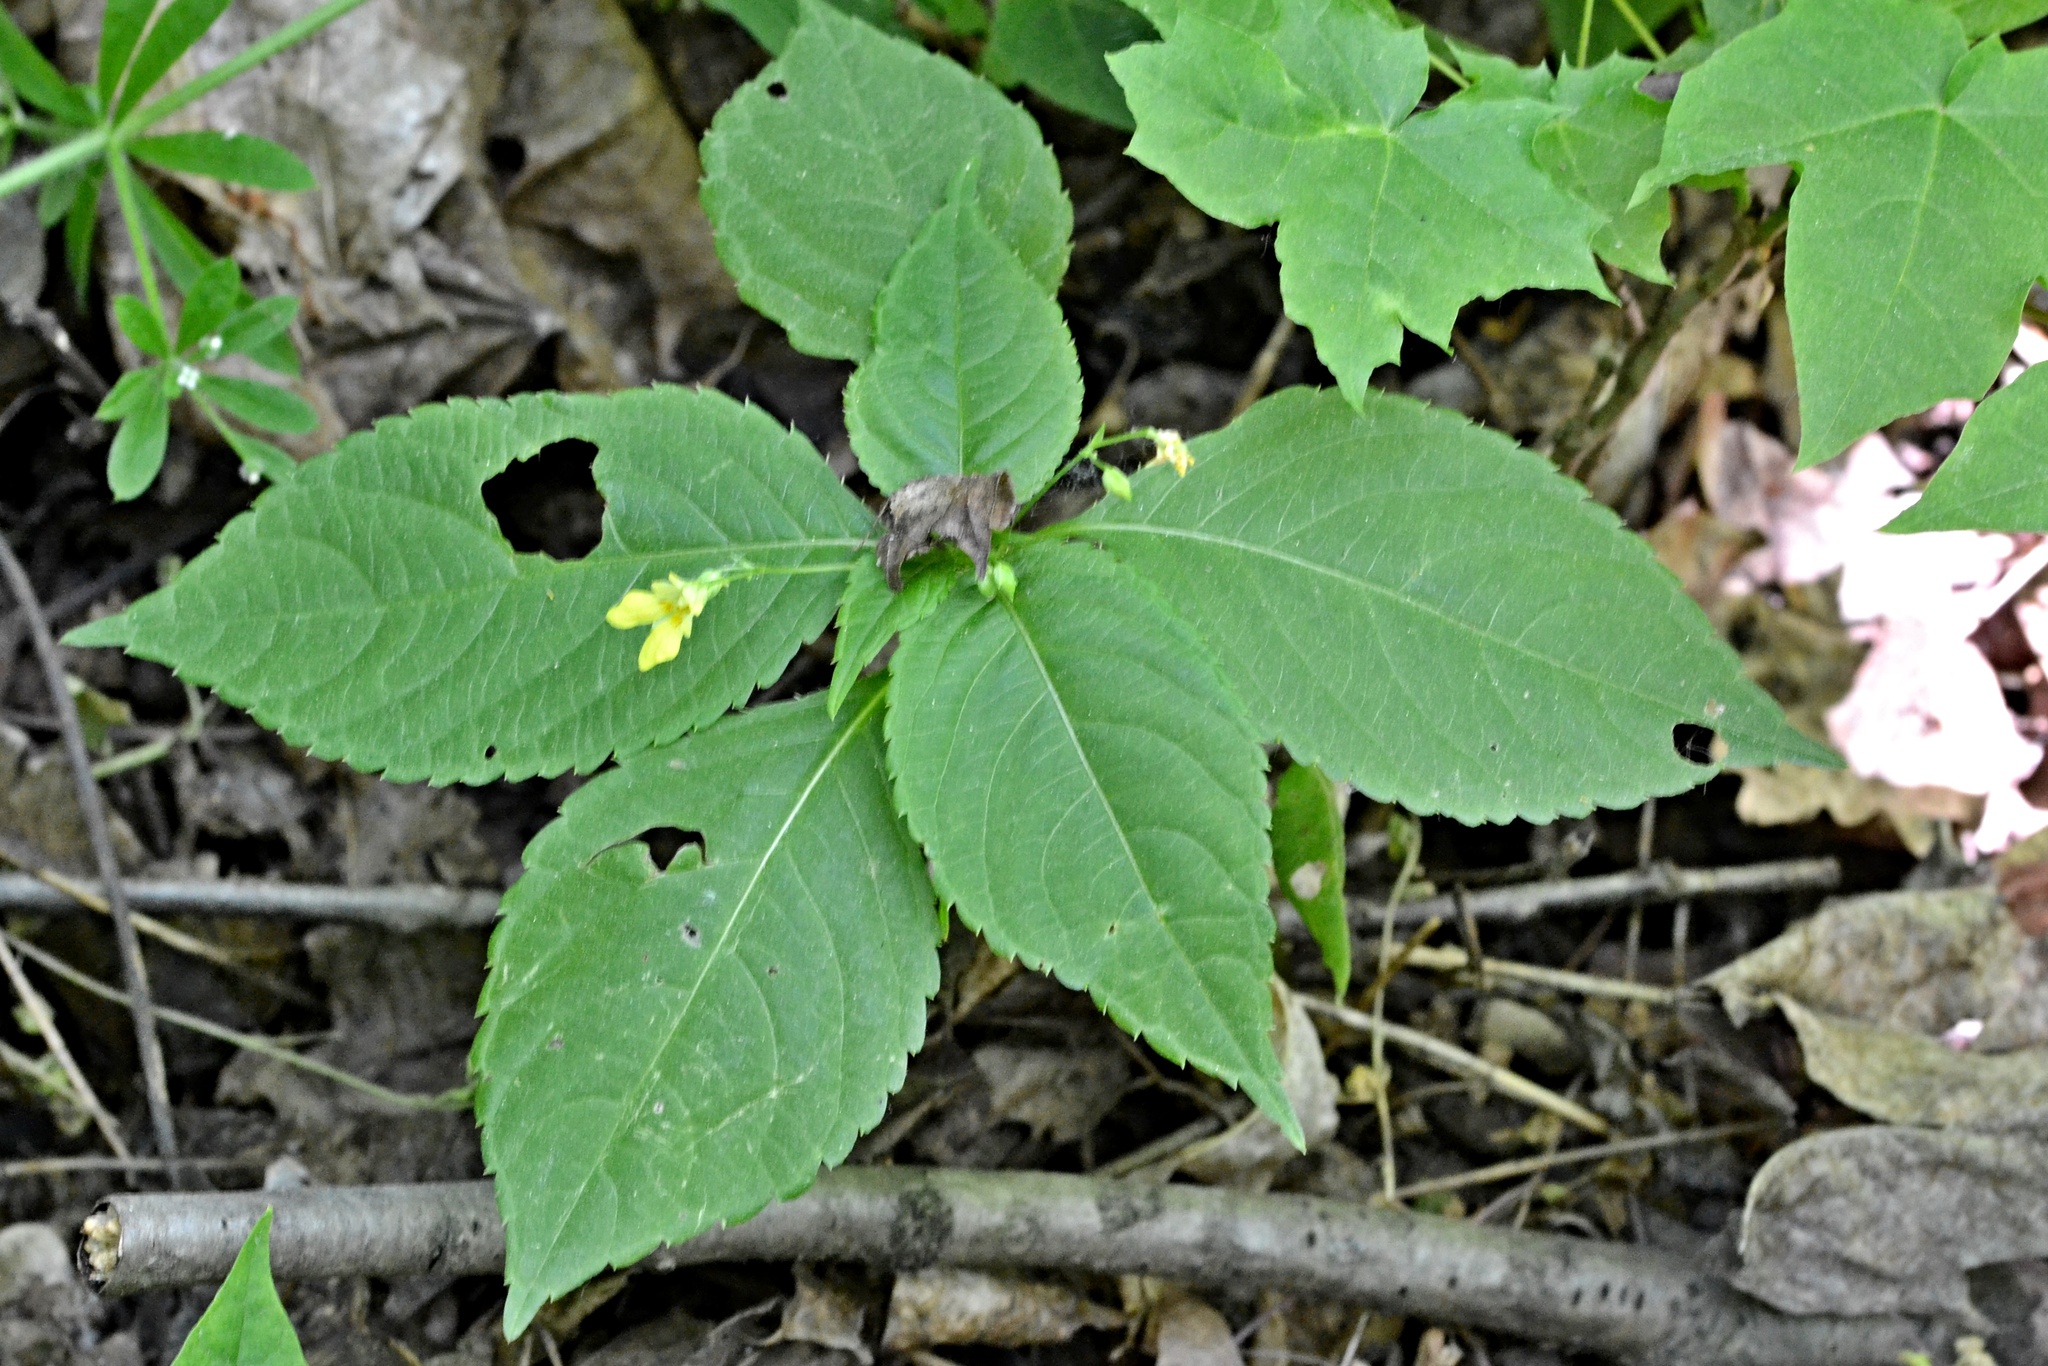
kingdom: Plantae
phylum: Tracheophyta
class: Magnoliopsida
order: Ericales
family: Balsaminaceae
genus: Impatiens
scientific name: Impatiens parviflora
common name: Small balsam
